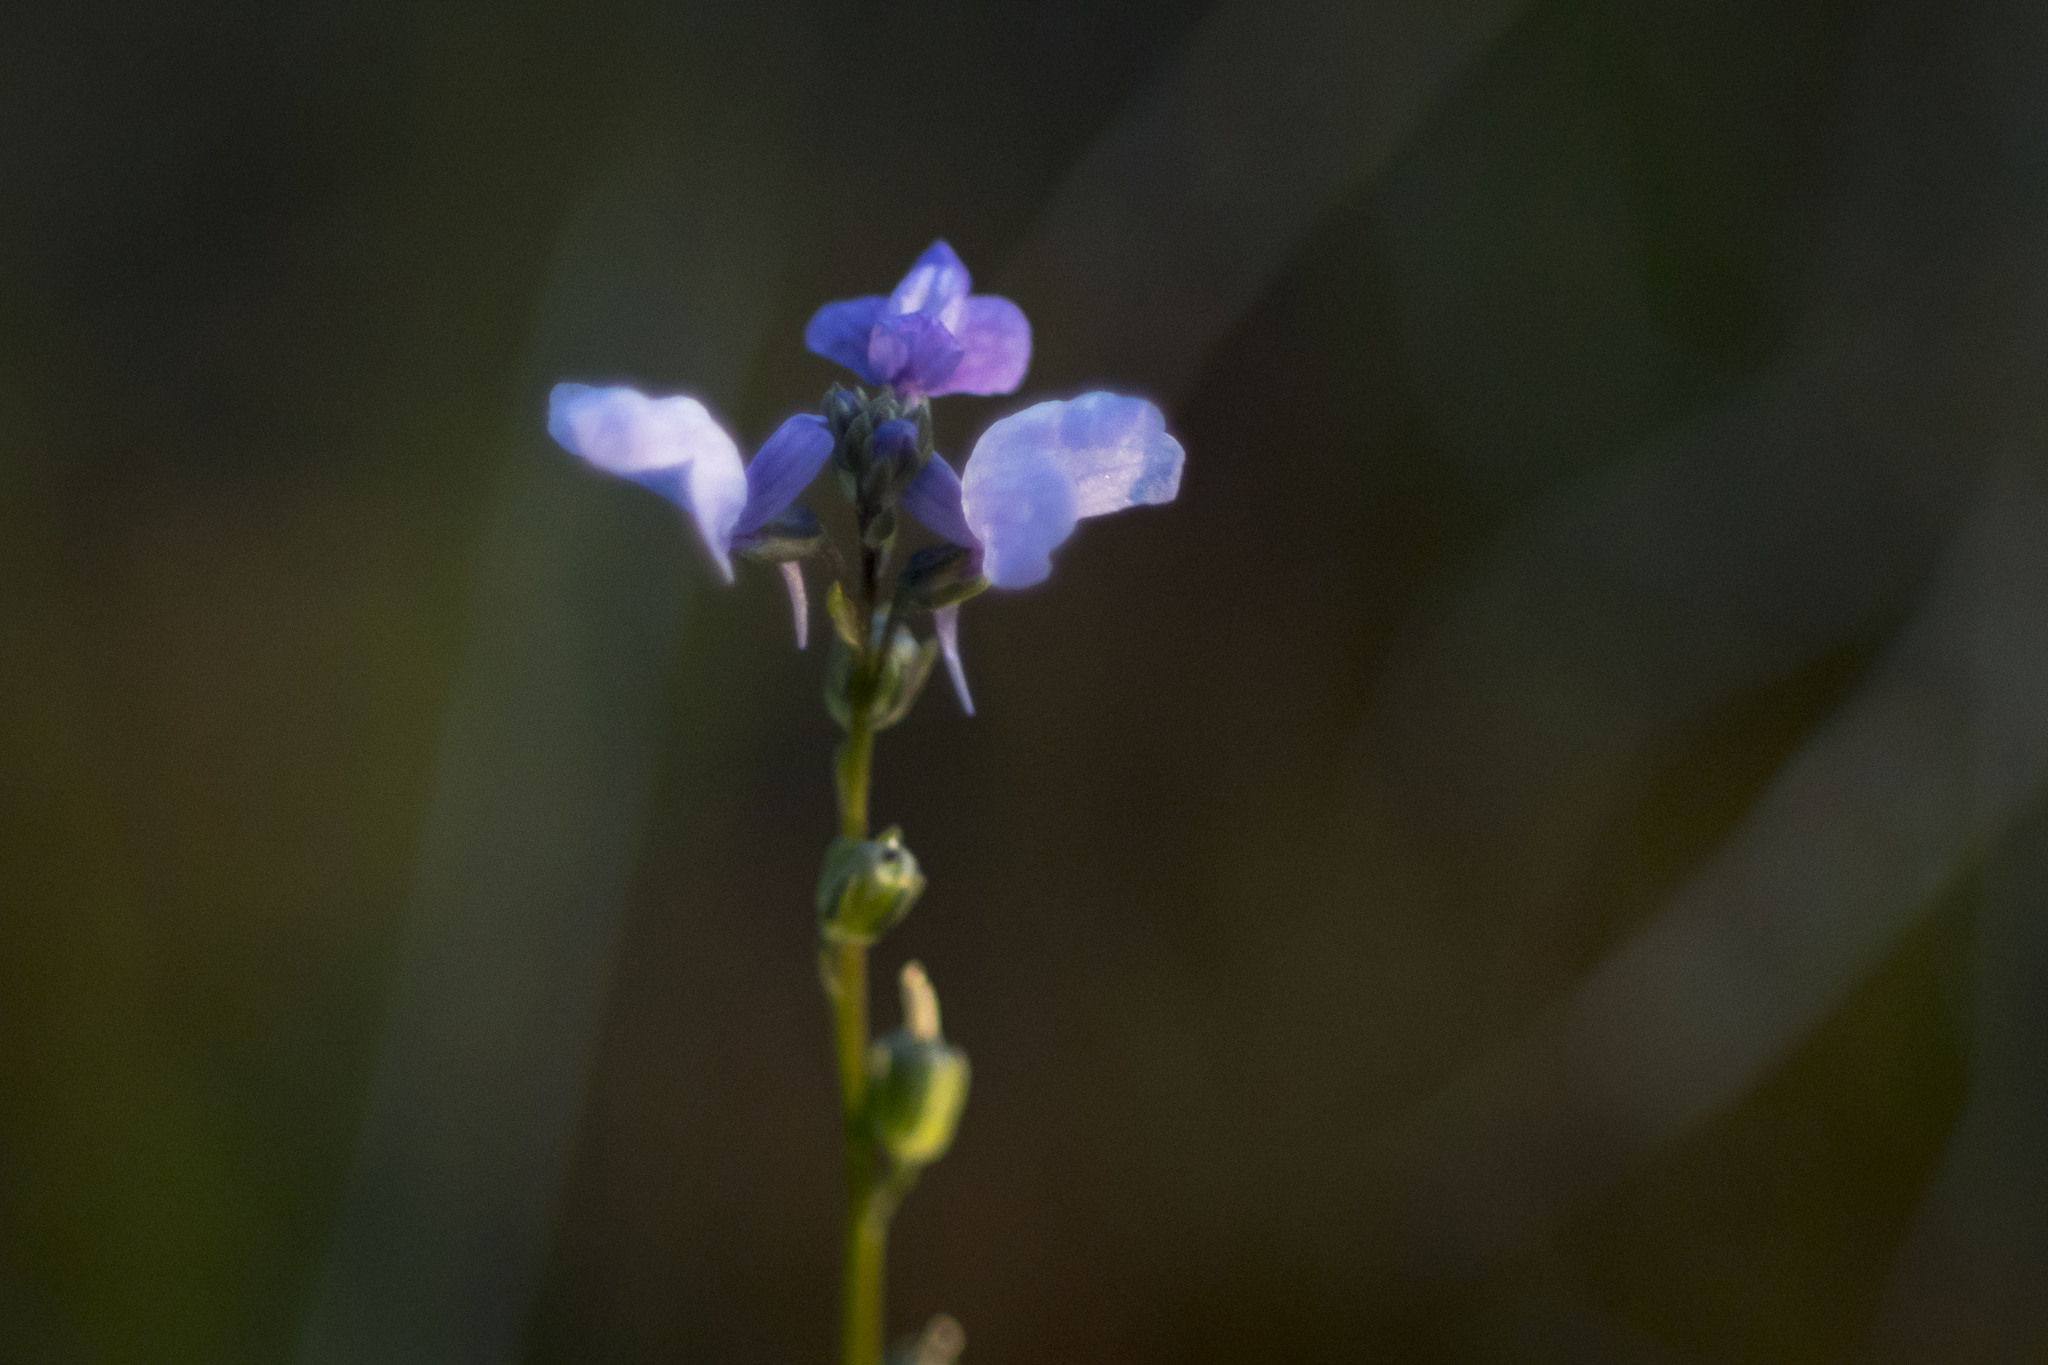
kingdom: Plantae
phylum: Tracheophyta
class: Magnoliopsida
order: Lamiales
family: Plantaginaceae
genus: Nuttallanthus
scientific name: Nuttallanthus texanus
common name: Texas toadflax
